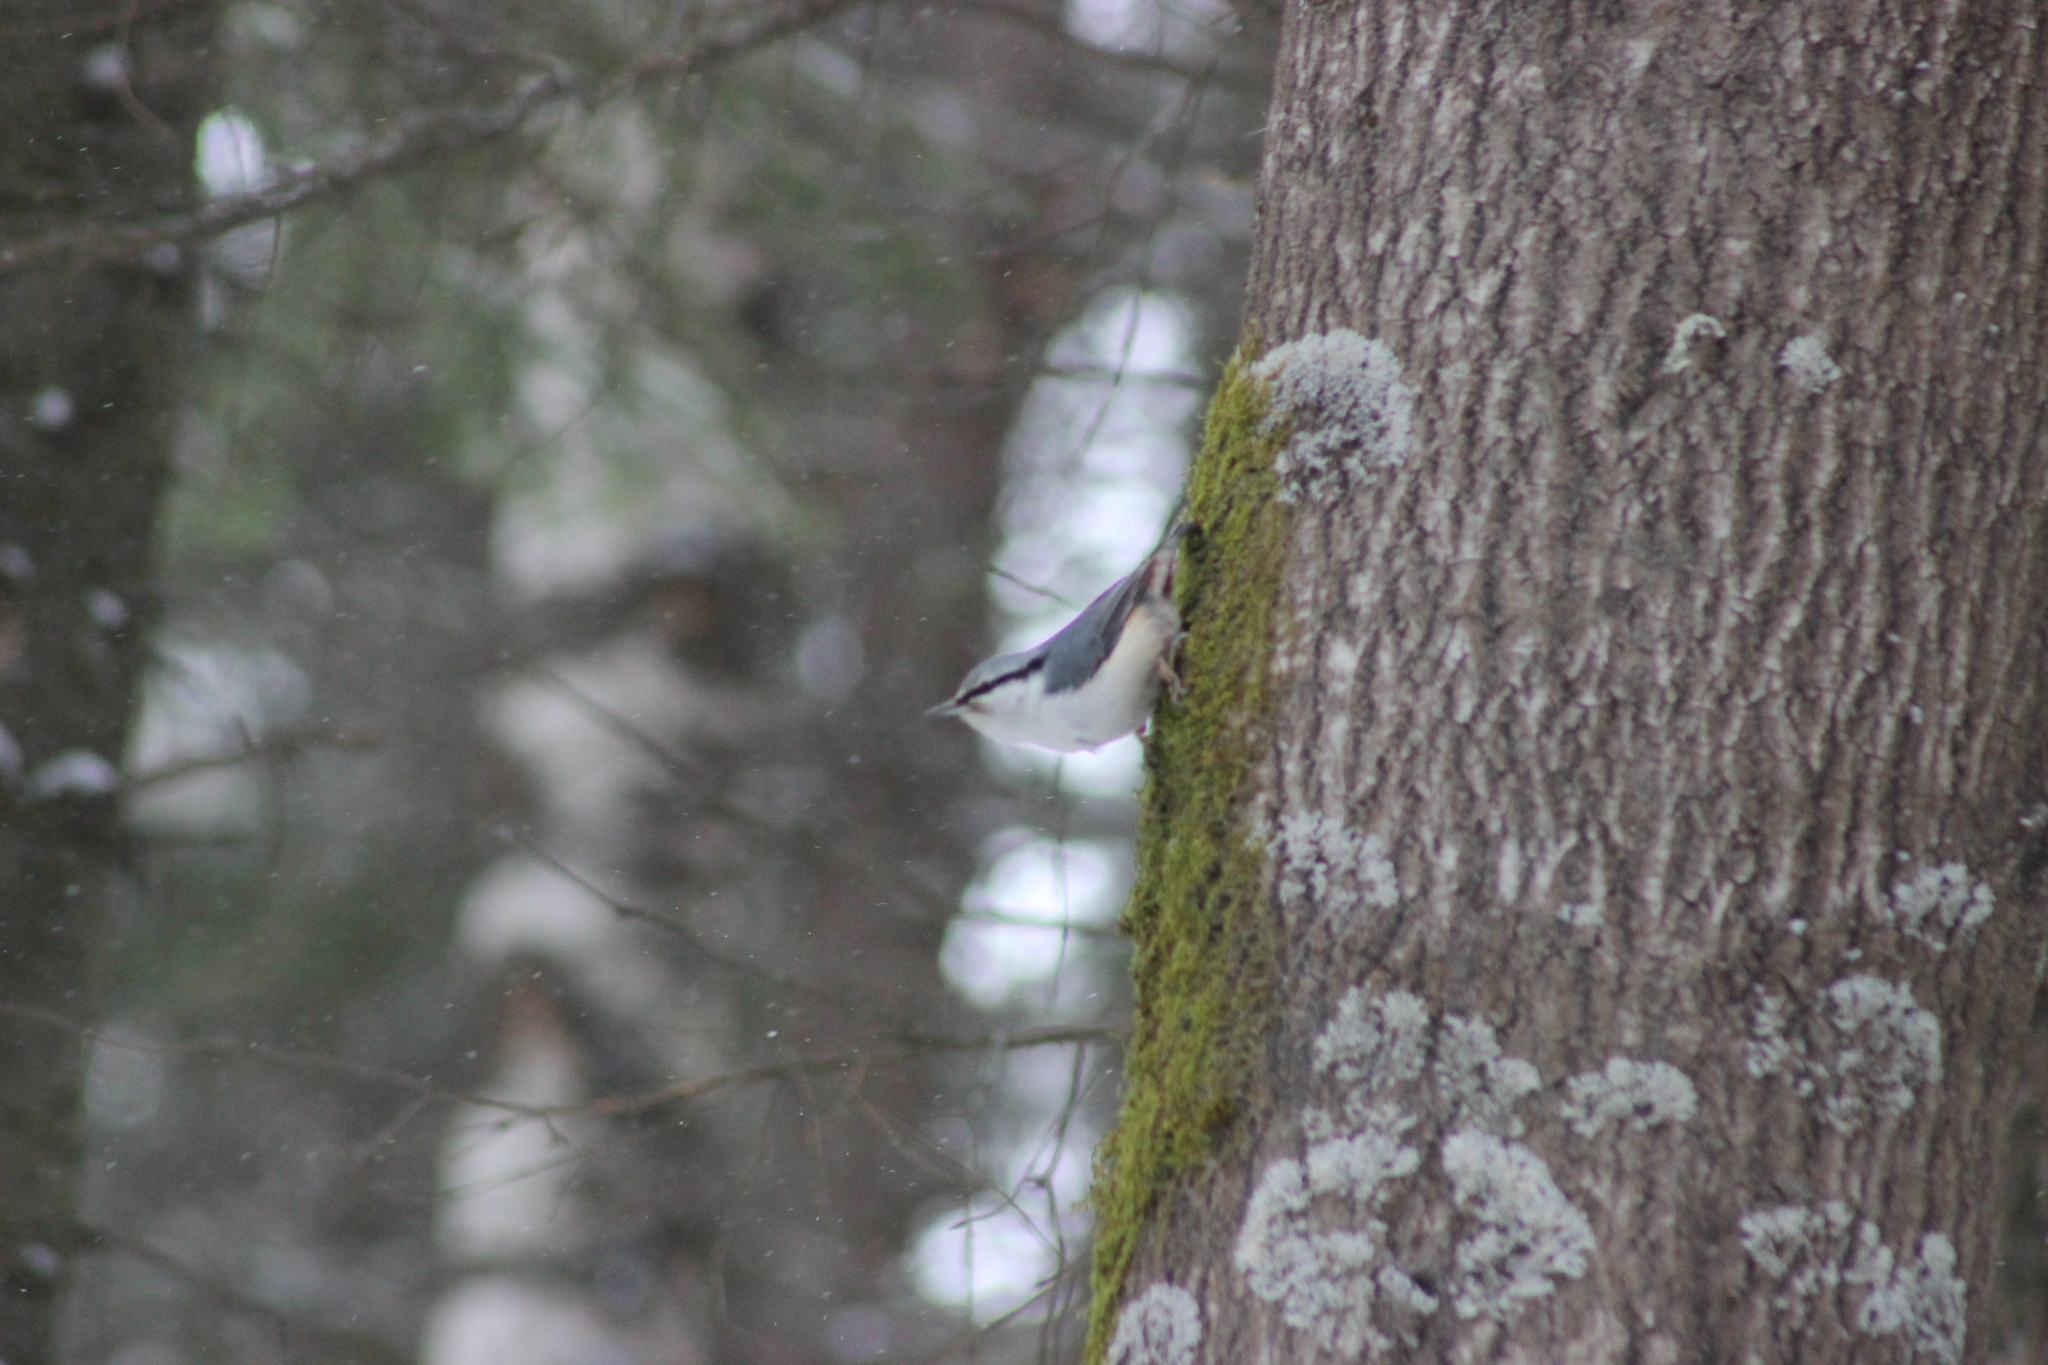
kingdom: Animalia
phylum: Chordata
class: Aves
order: Passeriformes
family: Sittidae
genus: Sitta
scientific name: Sitta europaea
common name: Eurasian nuthatch
